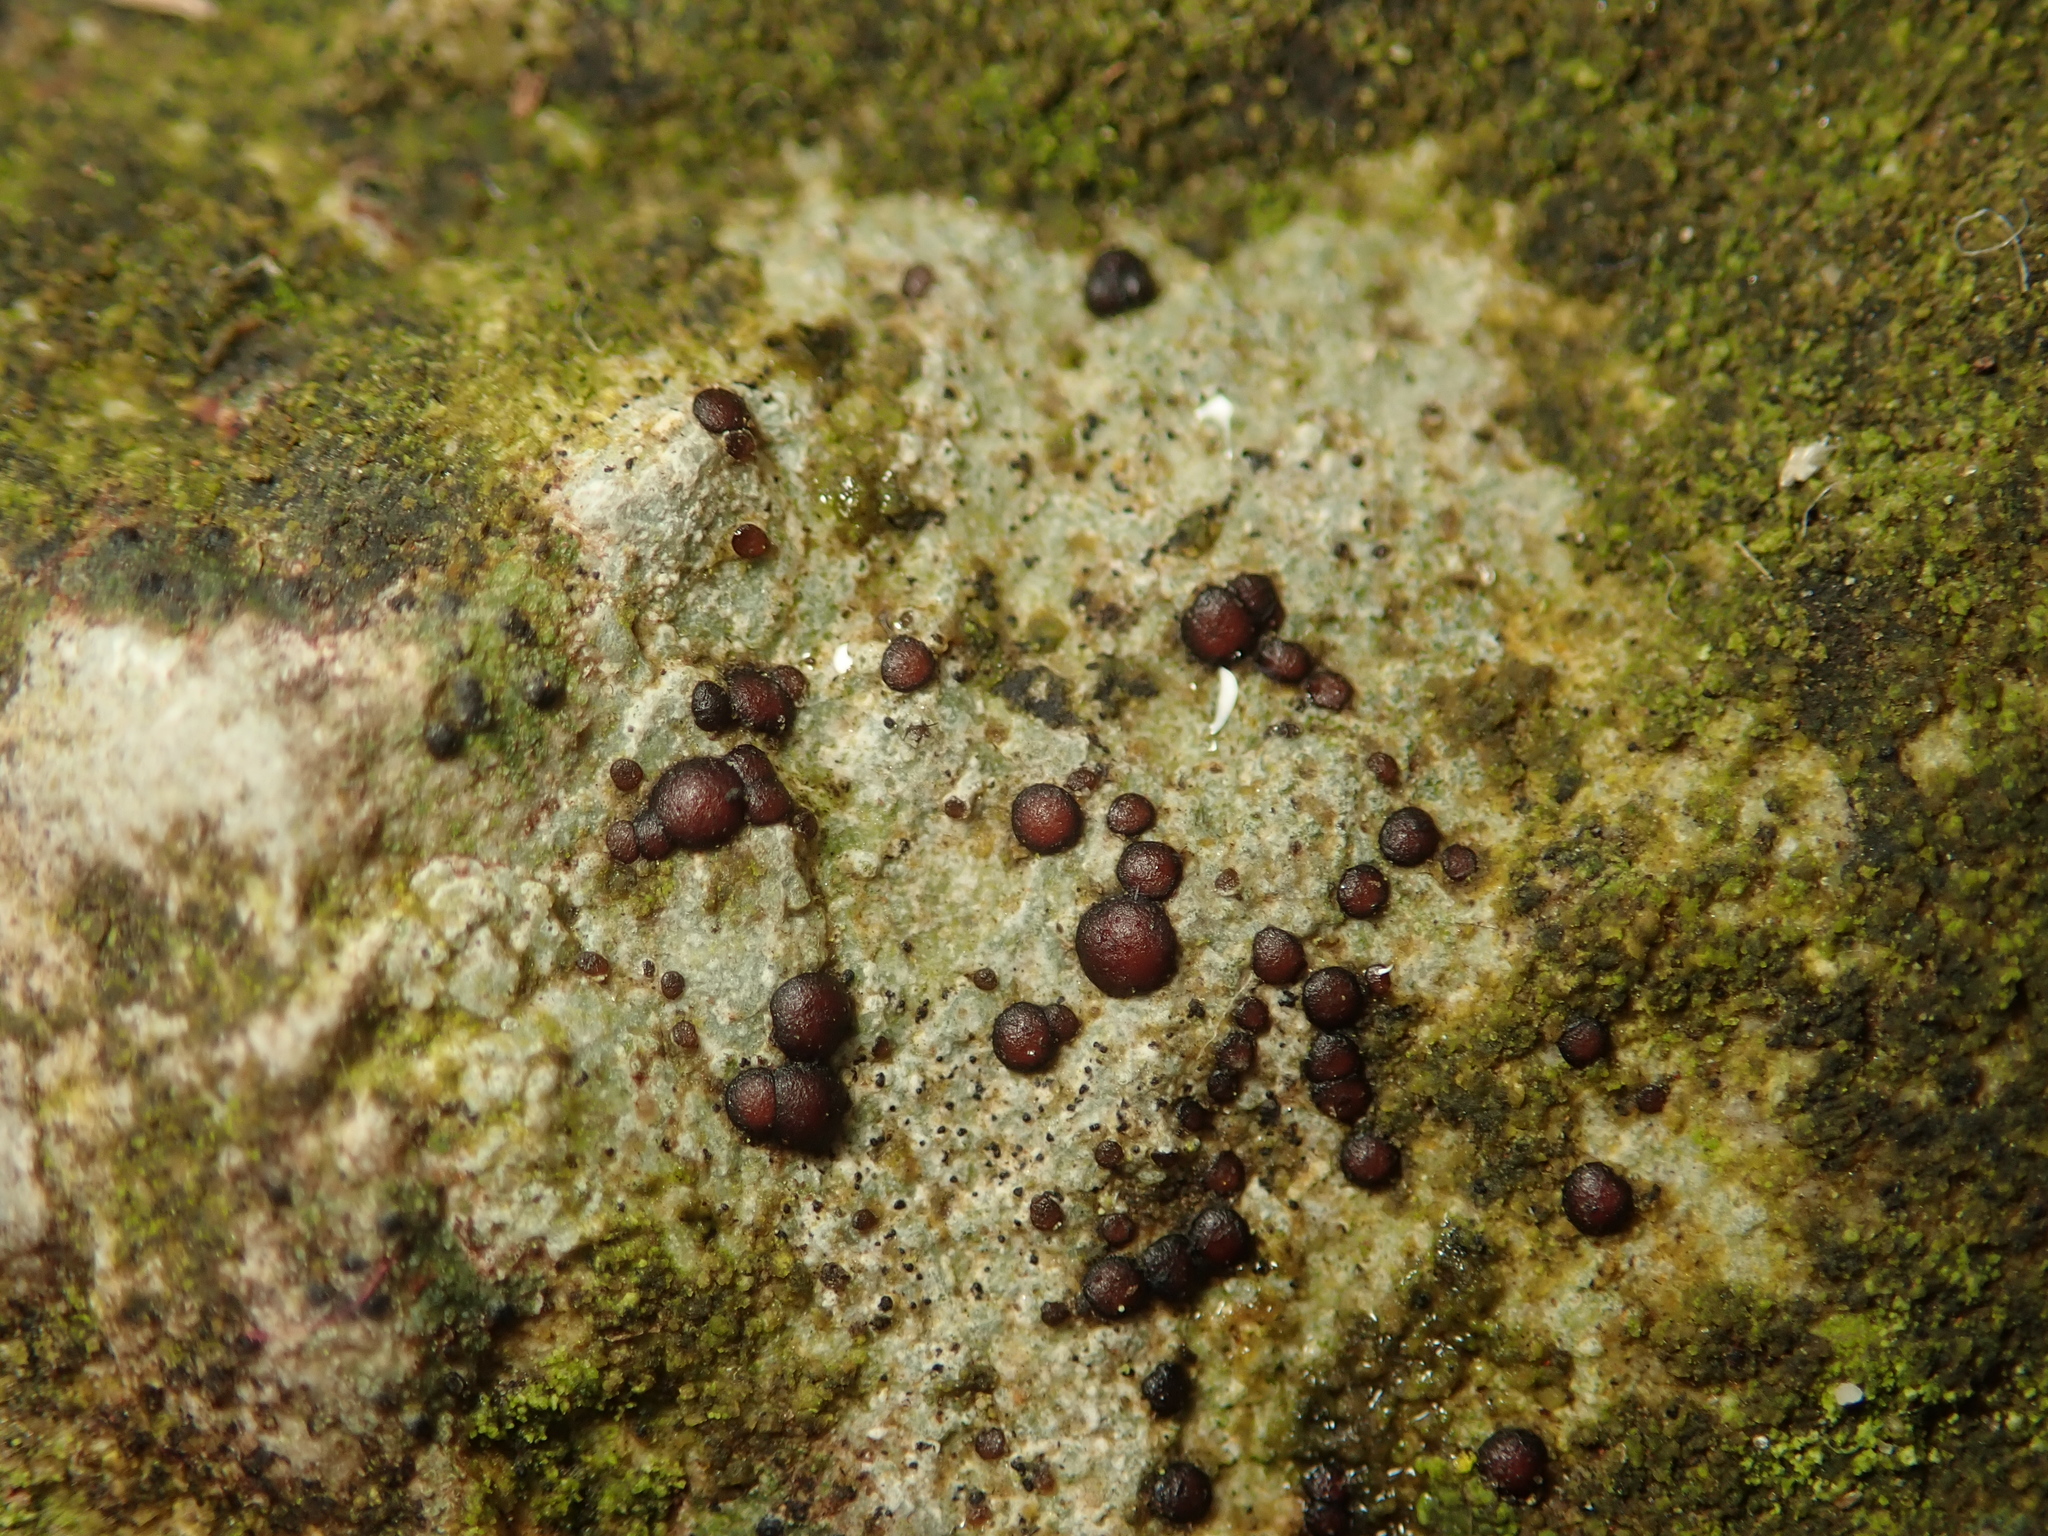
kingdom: Fungi
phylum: Ascomycota
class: Lecanoromycetes
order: Acarosporales
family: Acarosporaceae
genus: Sarcogyne
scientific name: Sarcogyne regularis
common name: Frosted grain-spored lichen
